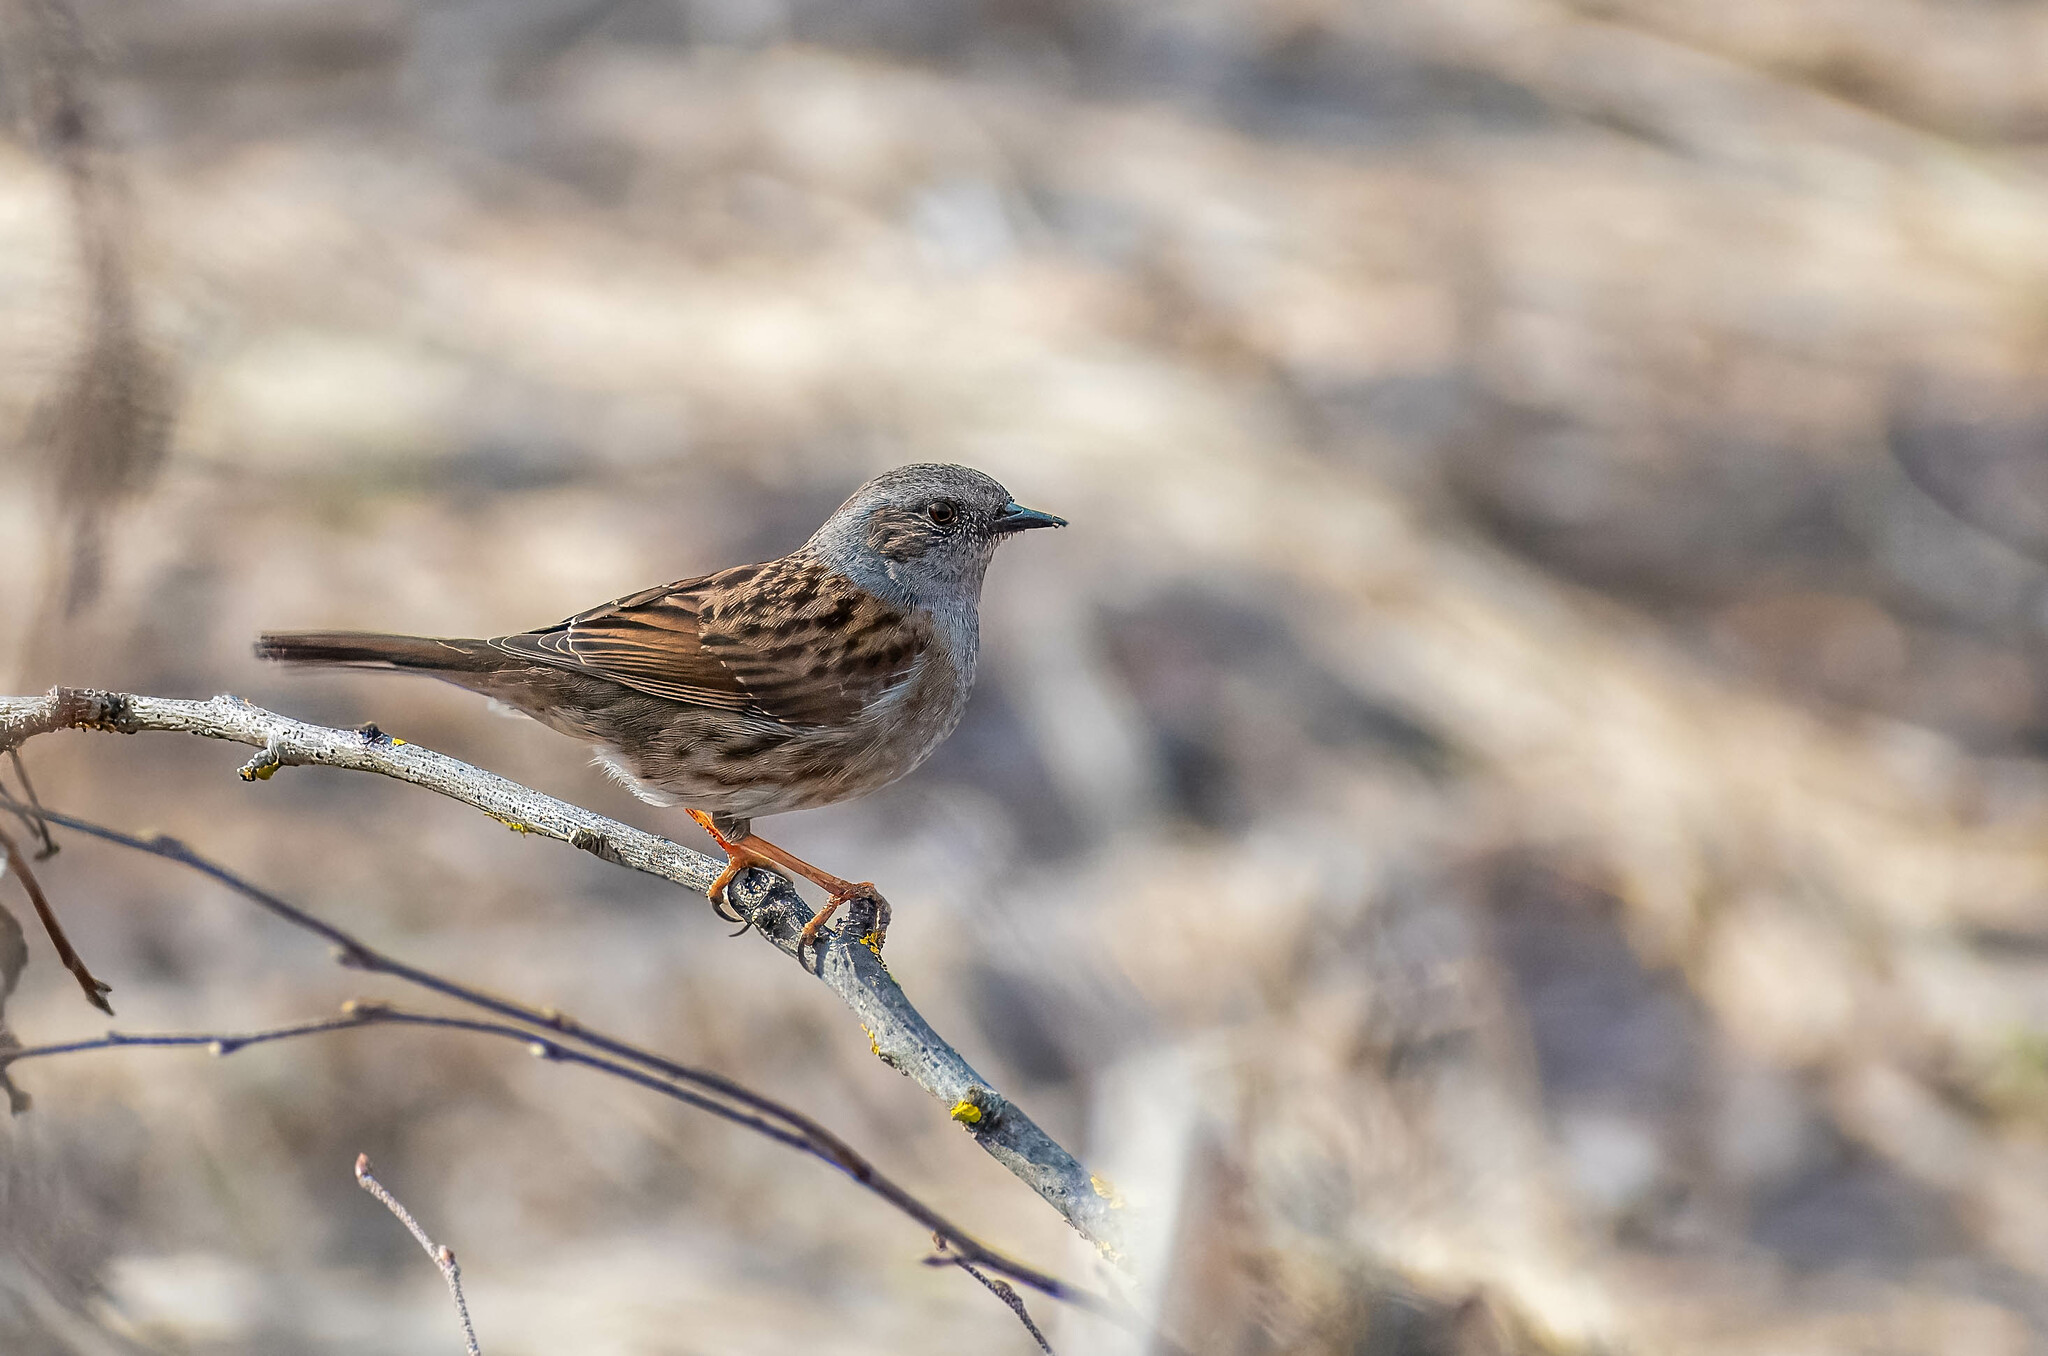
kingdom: Animalia
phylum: Chordata
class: Aves
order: Passeriformes
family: Prunellidae
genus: Prunella
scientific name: Prunella modularis
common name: Dunnock
